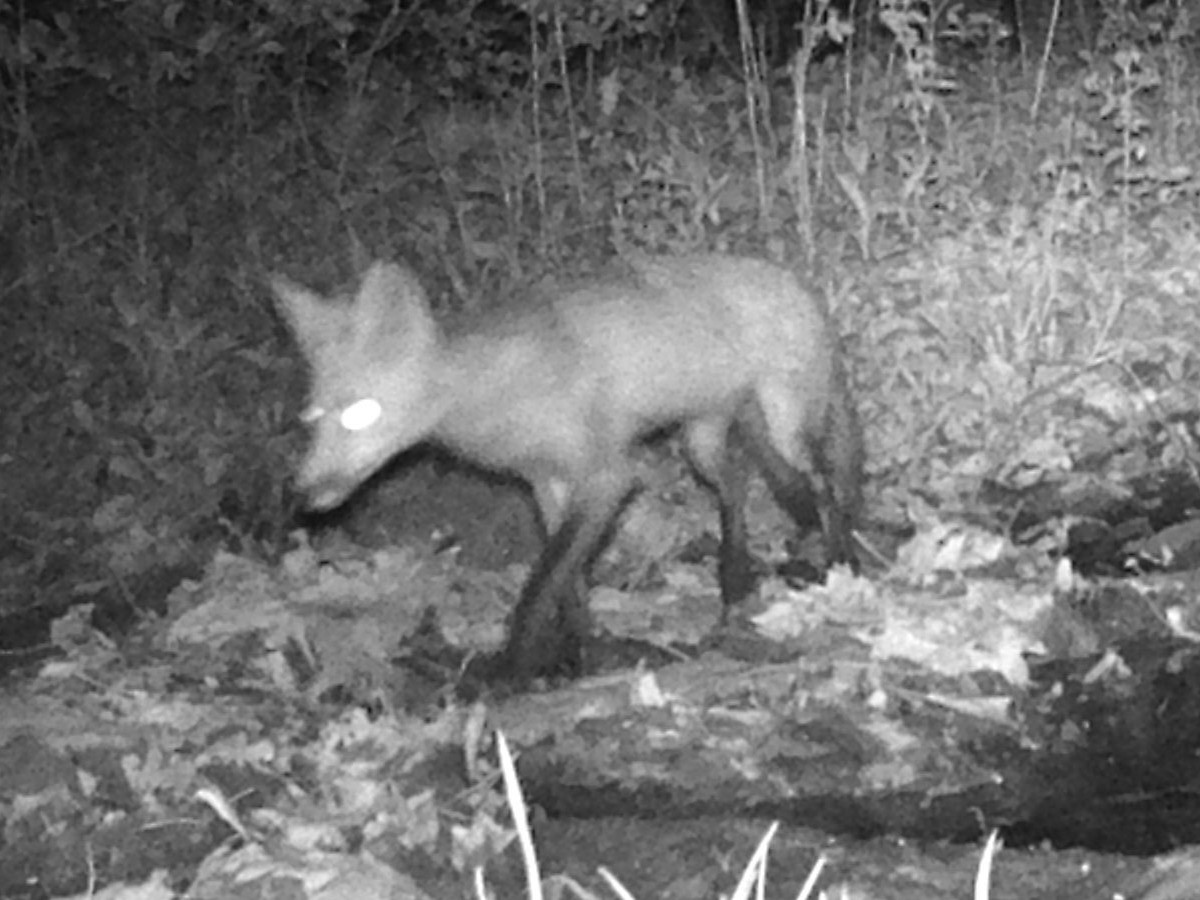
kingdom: Animalia
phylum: Chordata
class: Mammalia
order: Carnivora
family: Canidae
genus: Vulpes
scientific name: Vulpes vulpes
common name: Red fox
